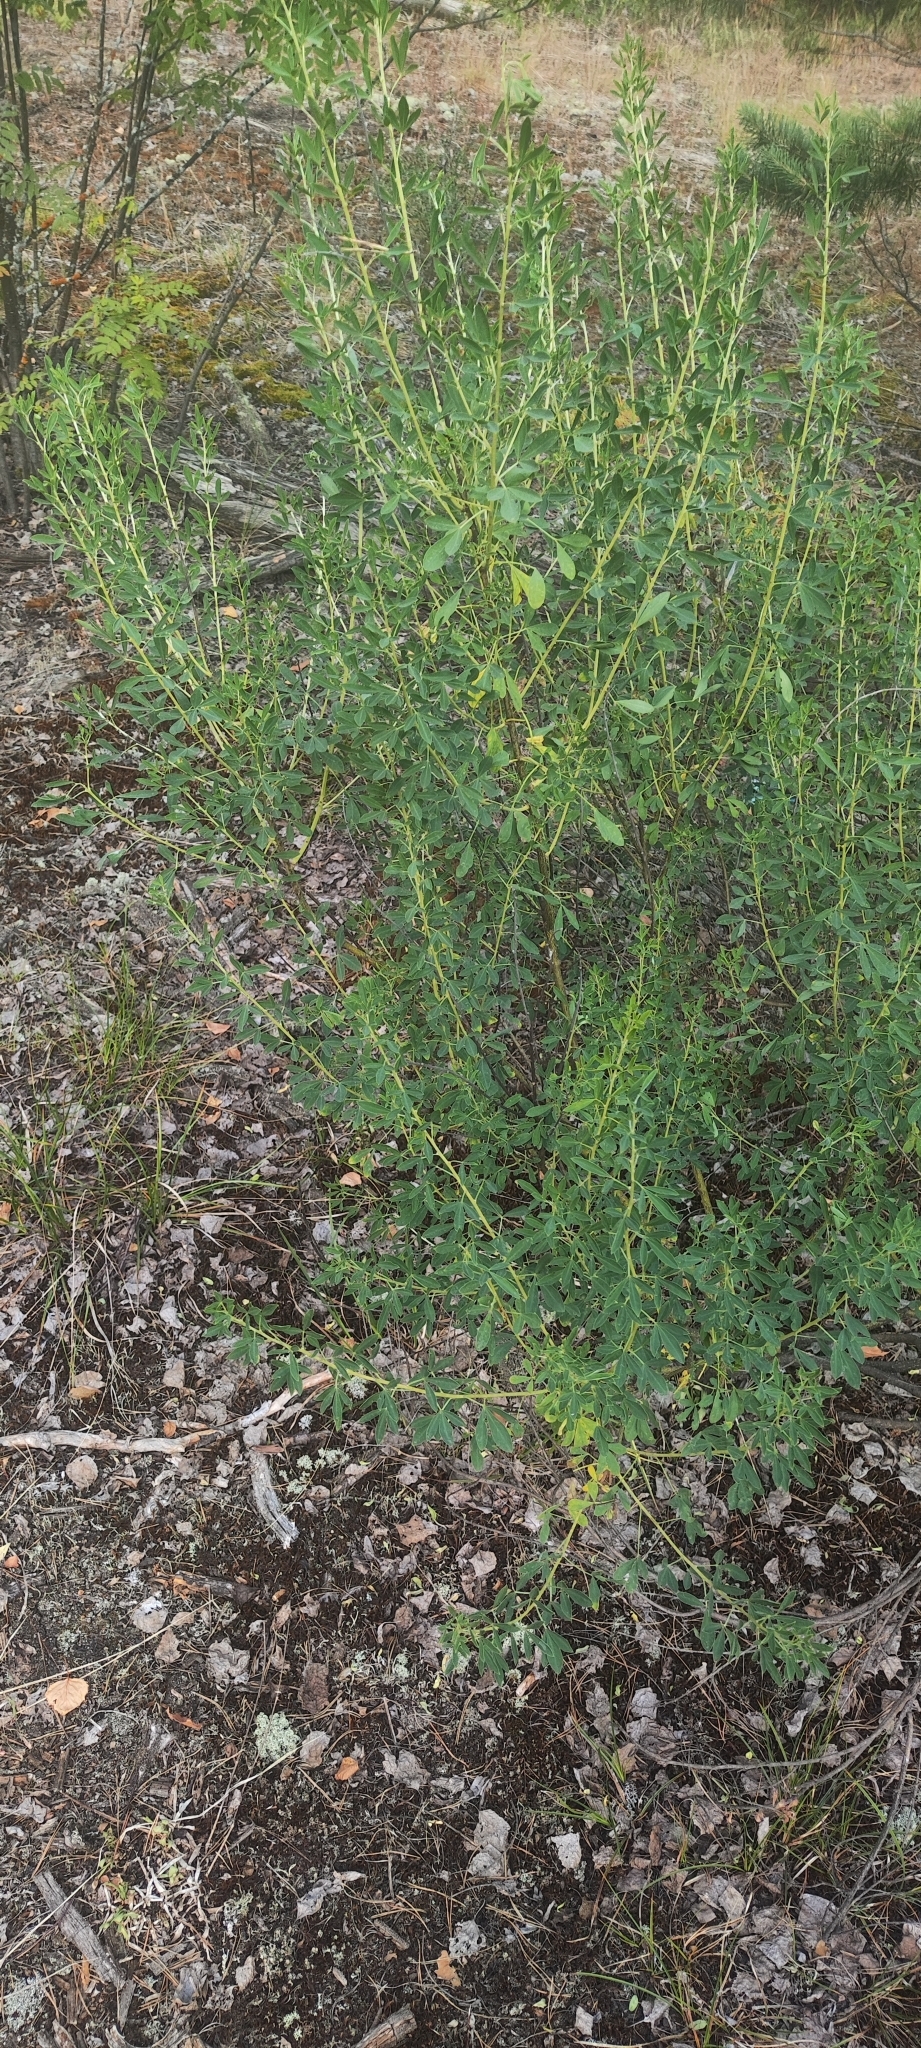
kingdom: Plantae
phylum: Tracheophyta
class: Magnoliopsida
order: Fabales
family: Fabaceae
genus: Chamaecytisus
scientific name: Chamaecytisus ruthenicus
